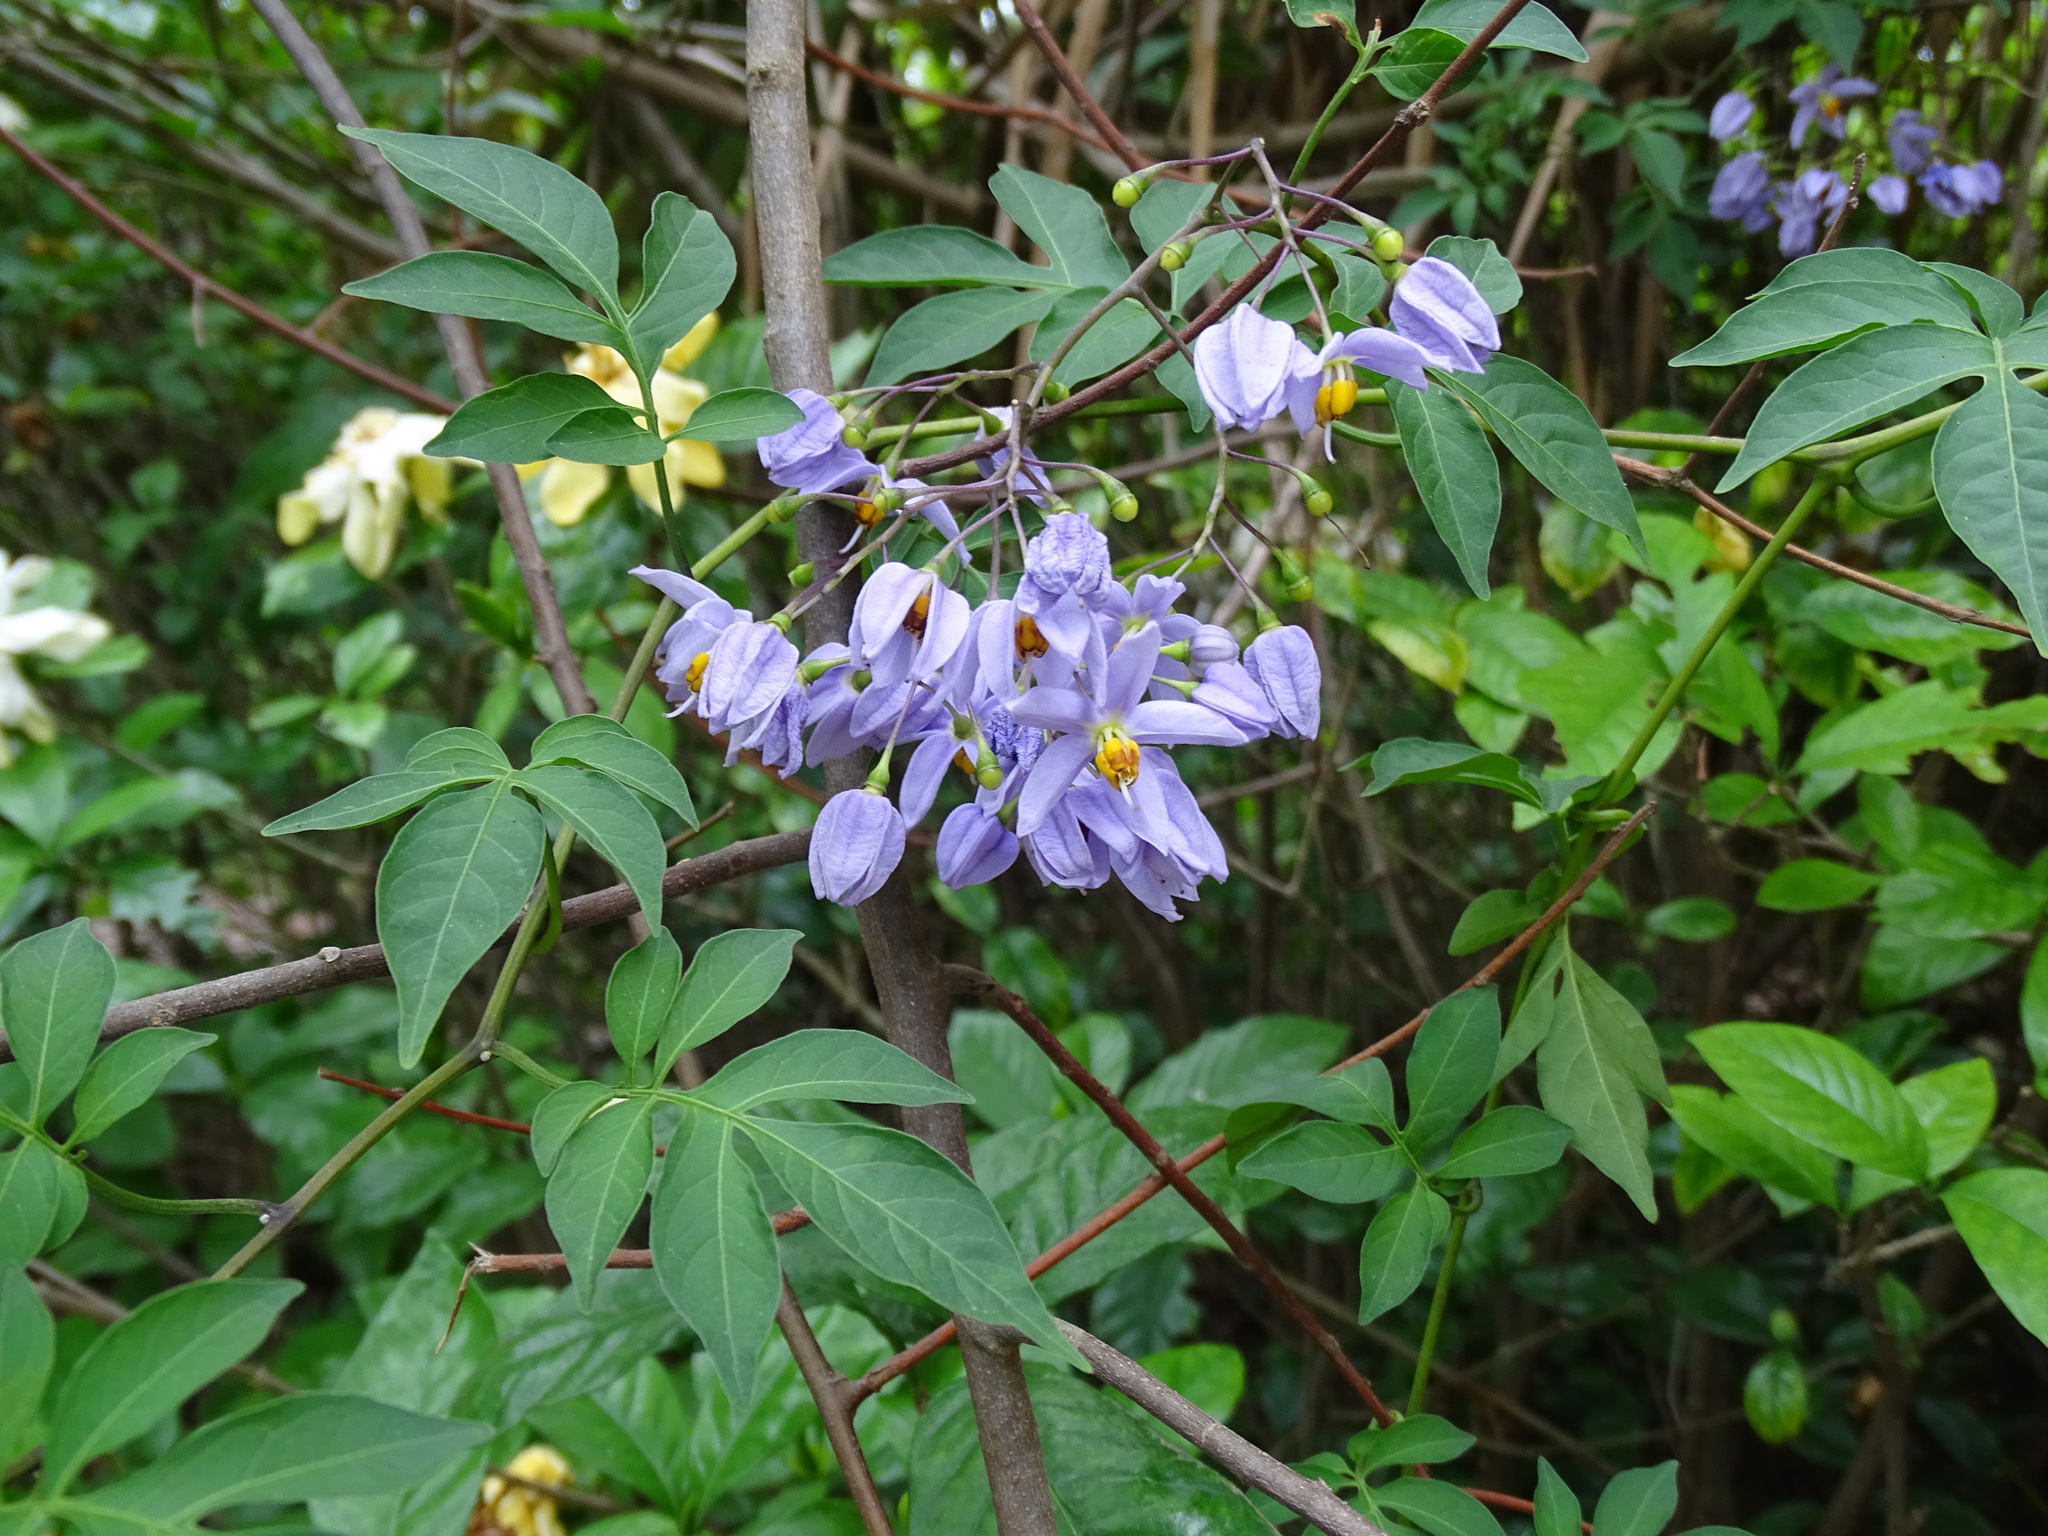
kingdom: Plantae
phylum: Tracheophyta
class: Magnoliopsida
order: Solanales
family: Solanaceae
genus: Solanum
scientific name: Solanum seaforthianum
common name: Brazilian nightshade
